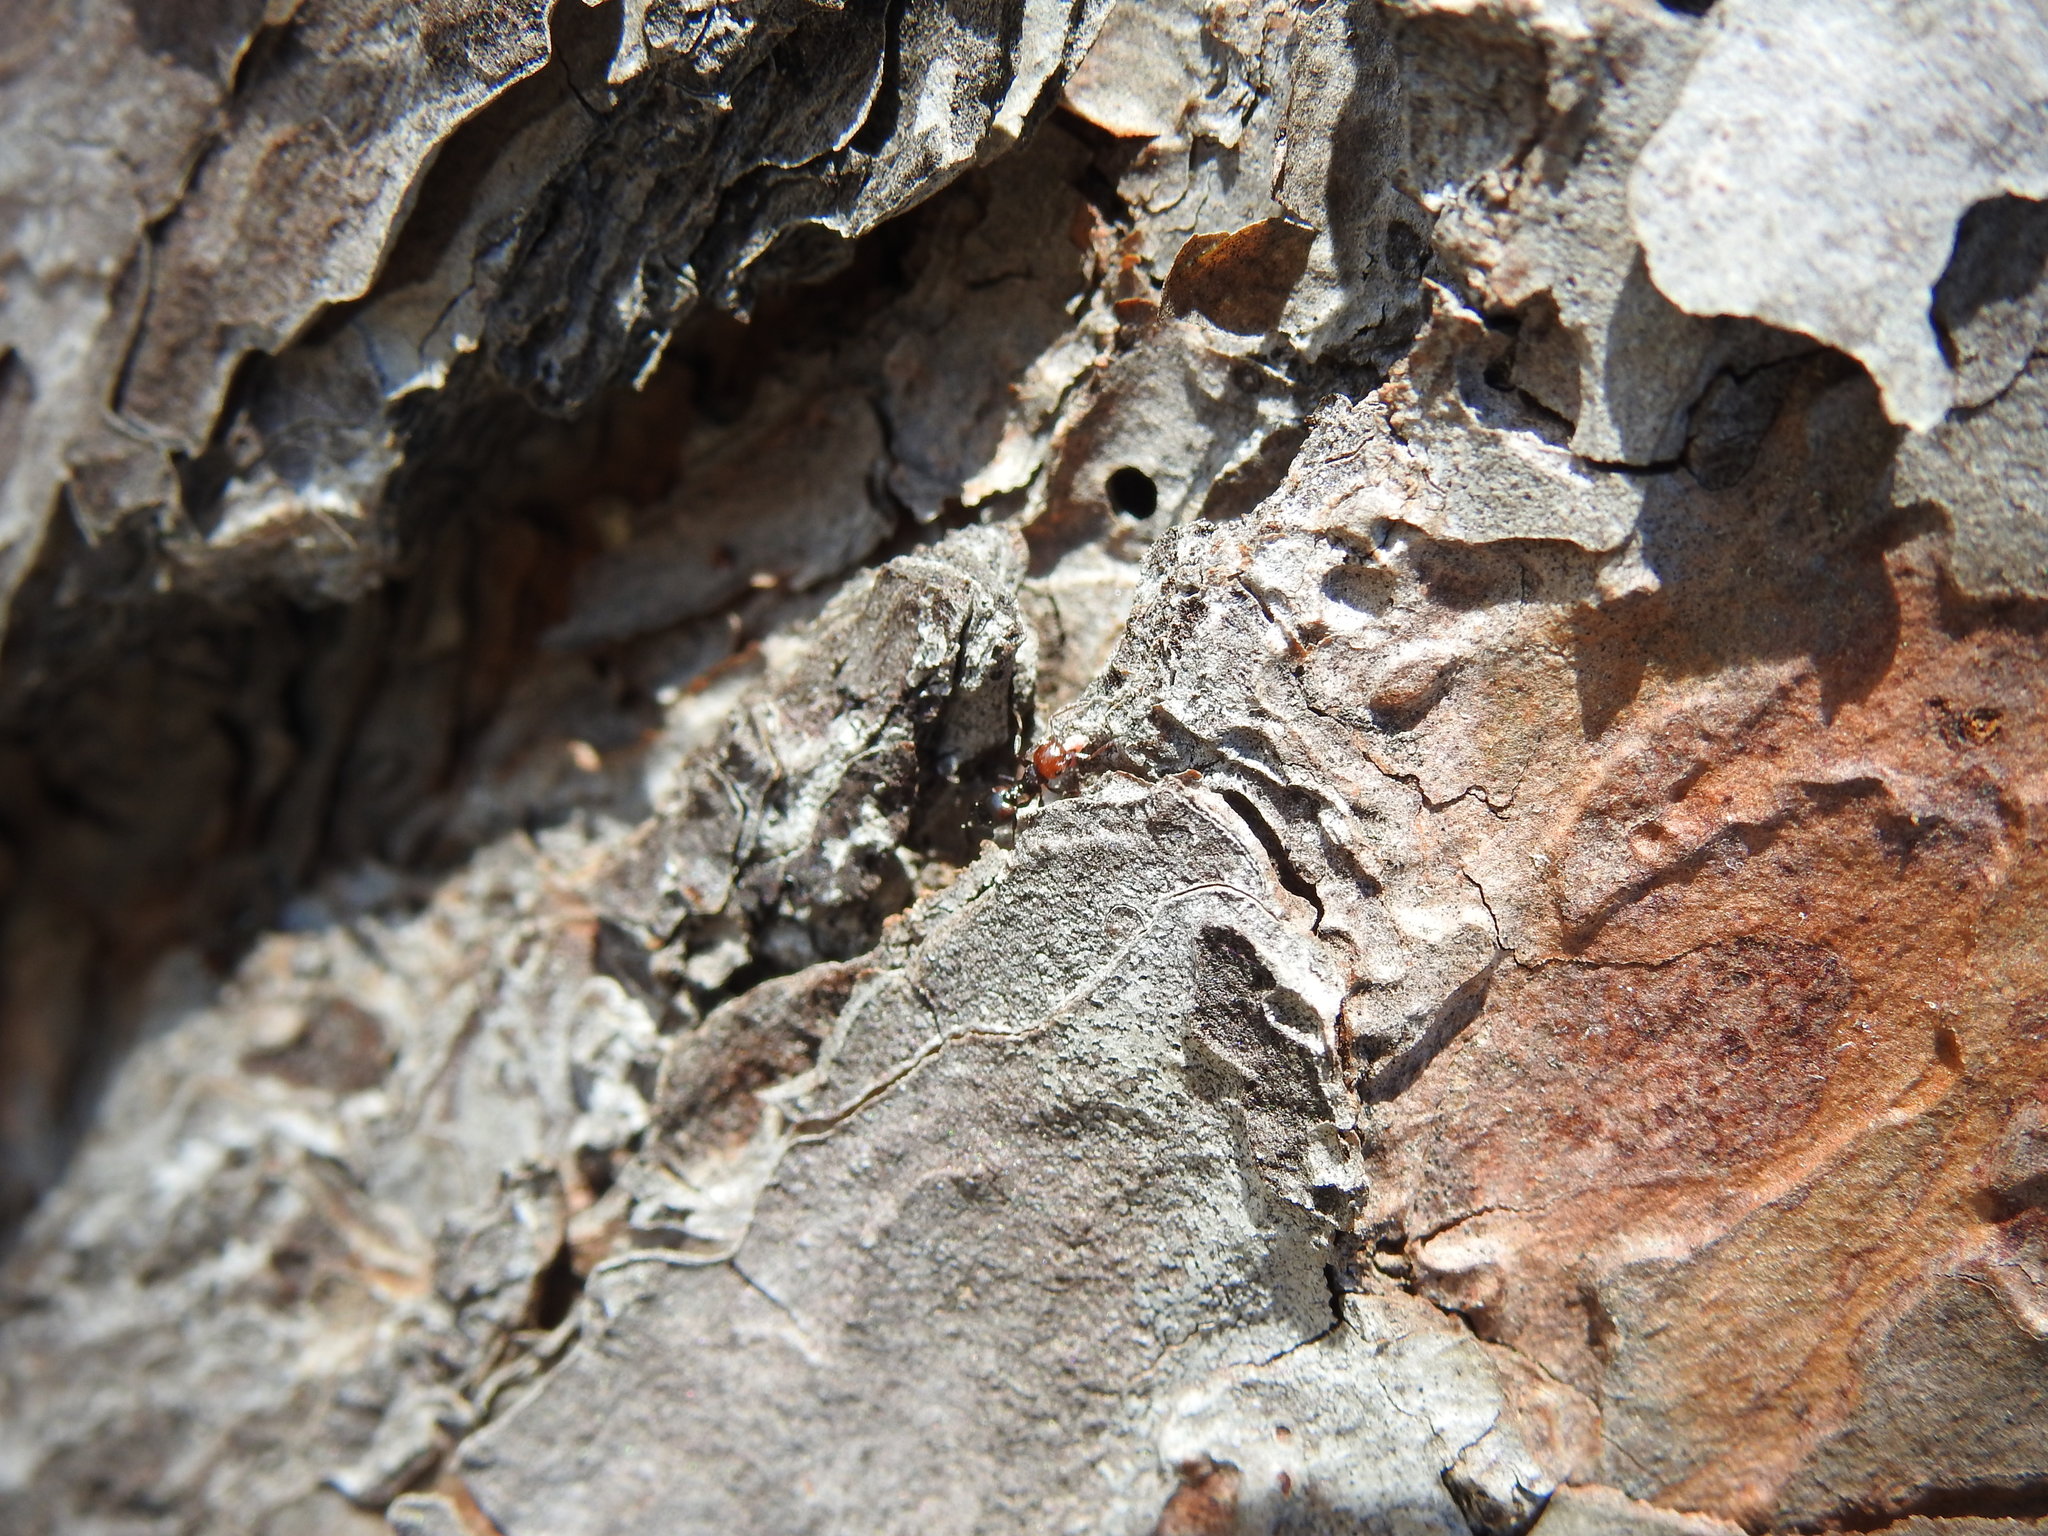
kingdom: Animalia
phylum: Arthropoda
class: Insecta
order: Hymenoptera
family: Formicidae
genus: Crematogaster
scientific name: Crematogaster scutellaris
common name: Fourmi du liège
